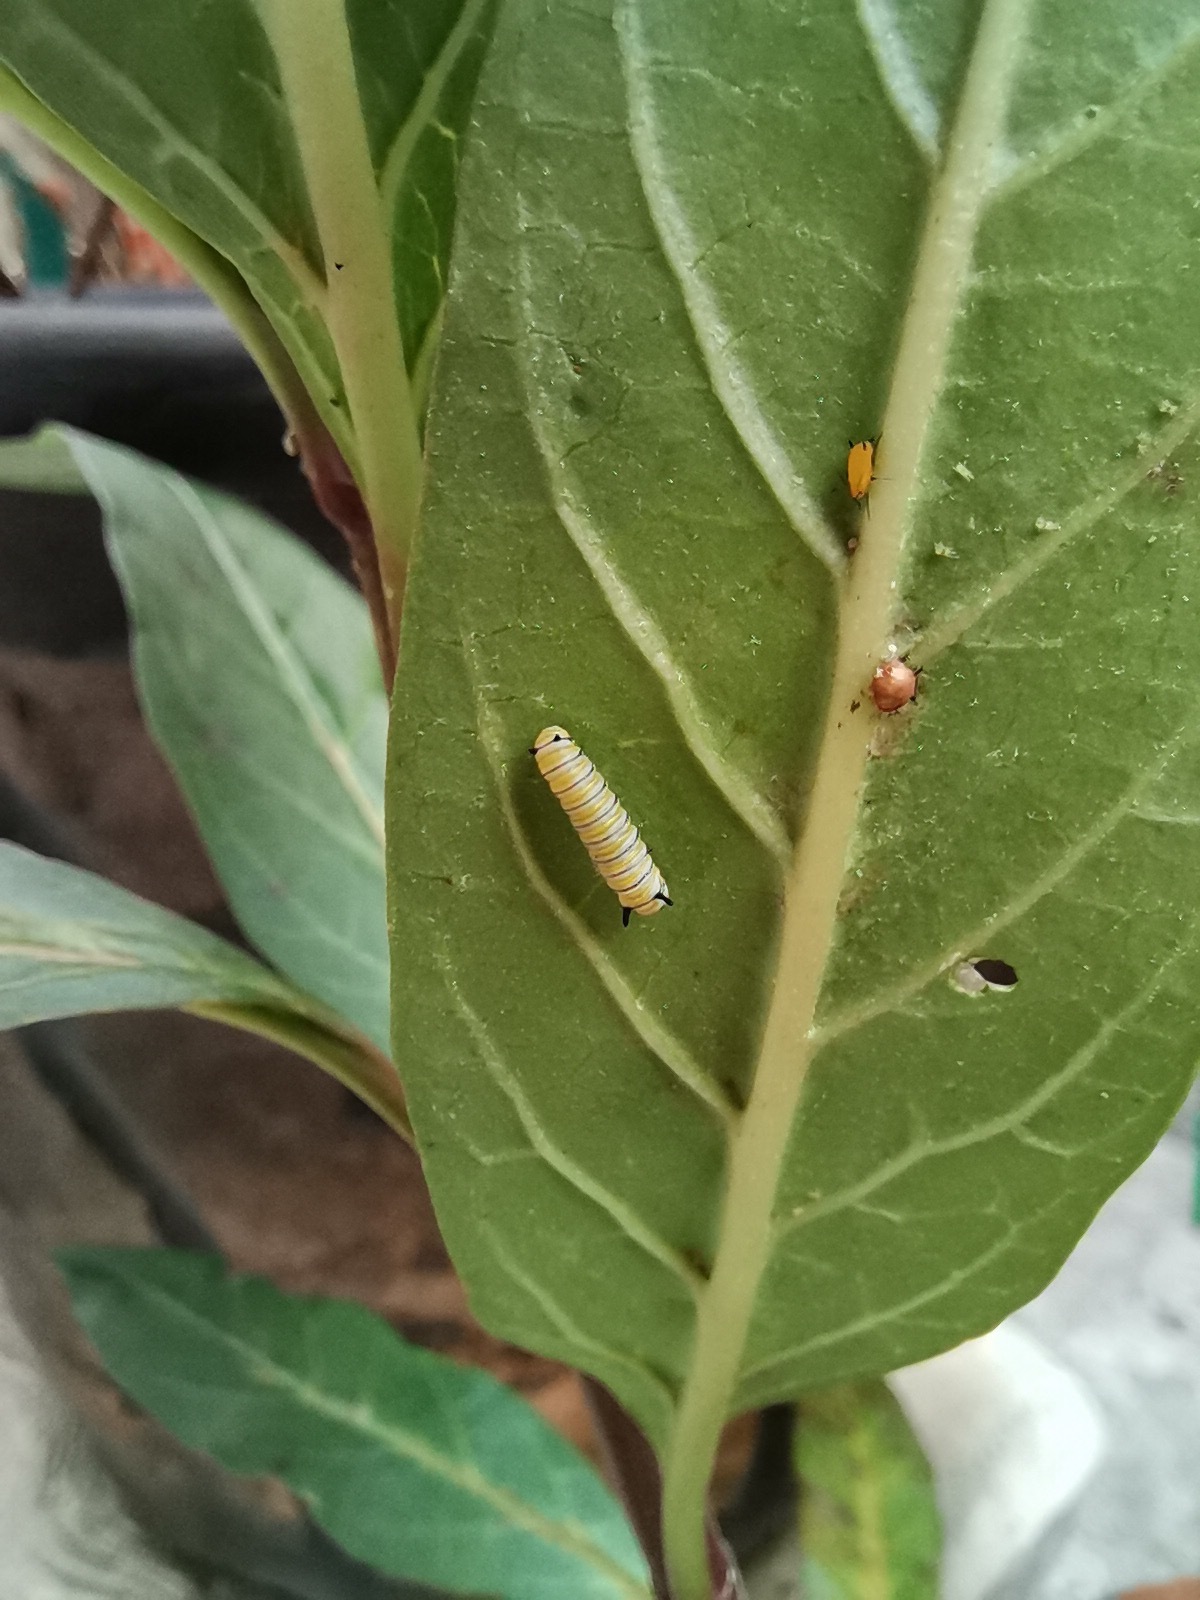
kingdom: Animalia
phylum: Arthropoda
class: Insecta
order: Lepidoptera
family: Nymphalidae
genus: Danaus
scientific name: Danaus plexippus
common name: Monarch
